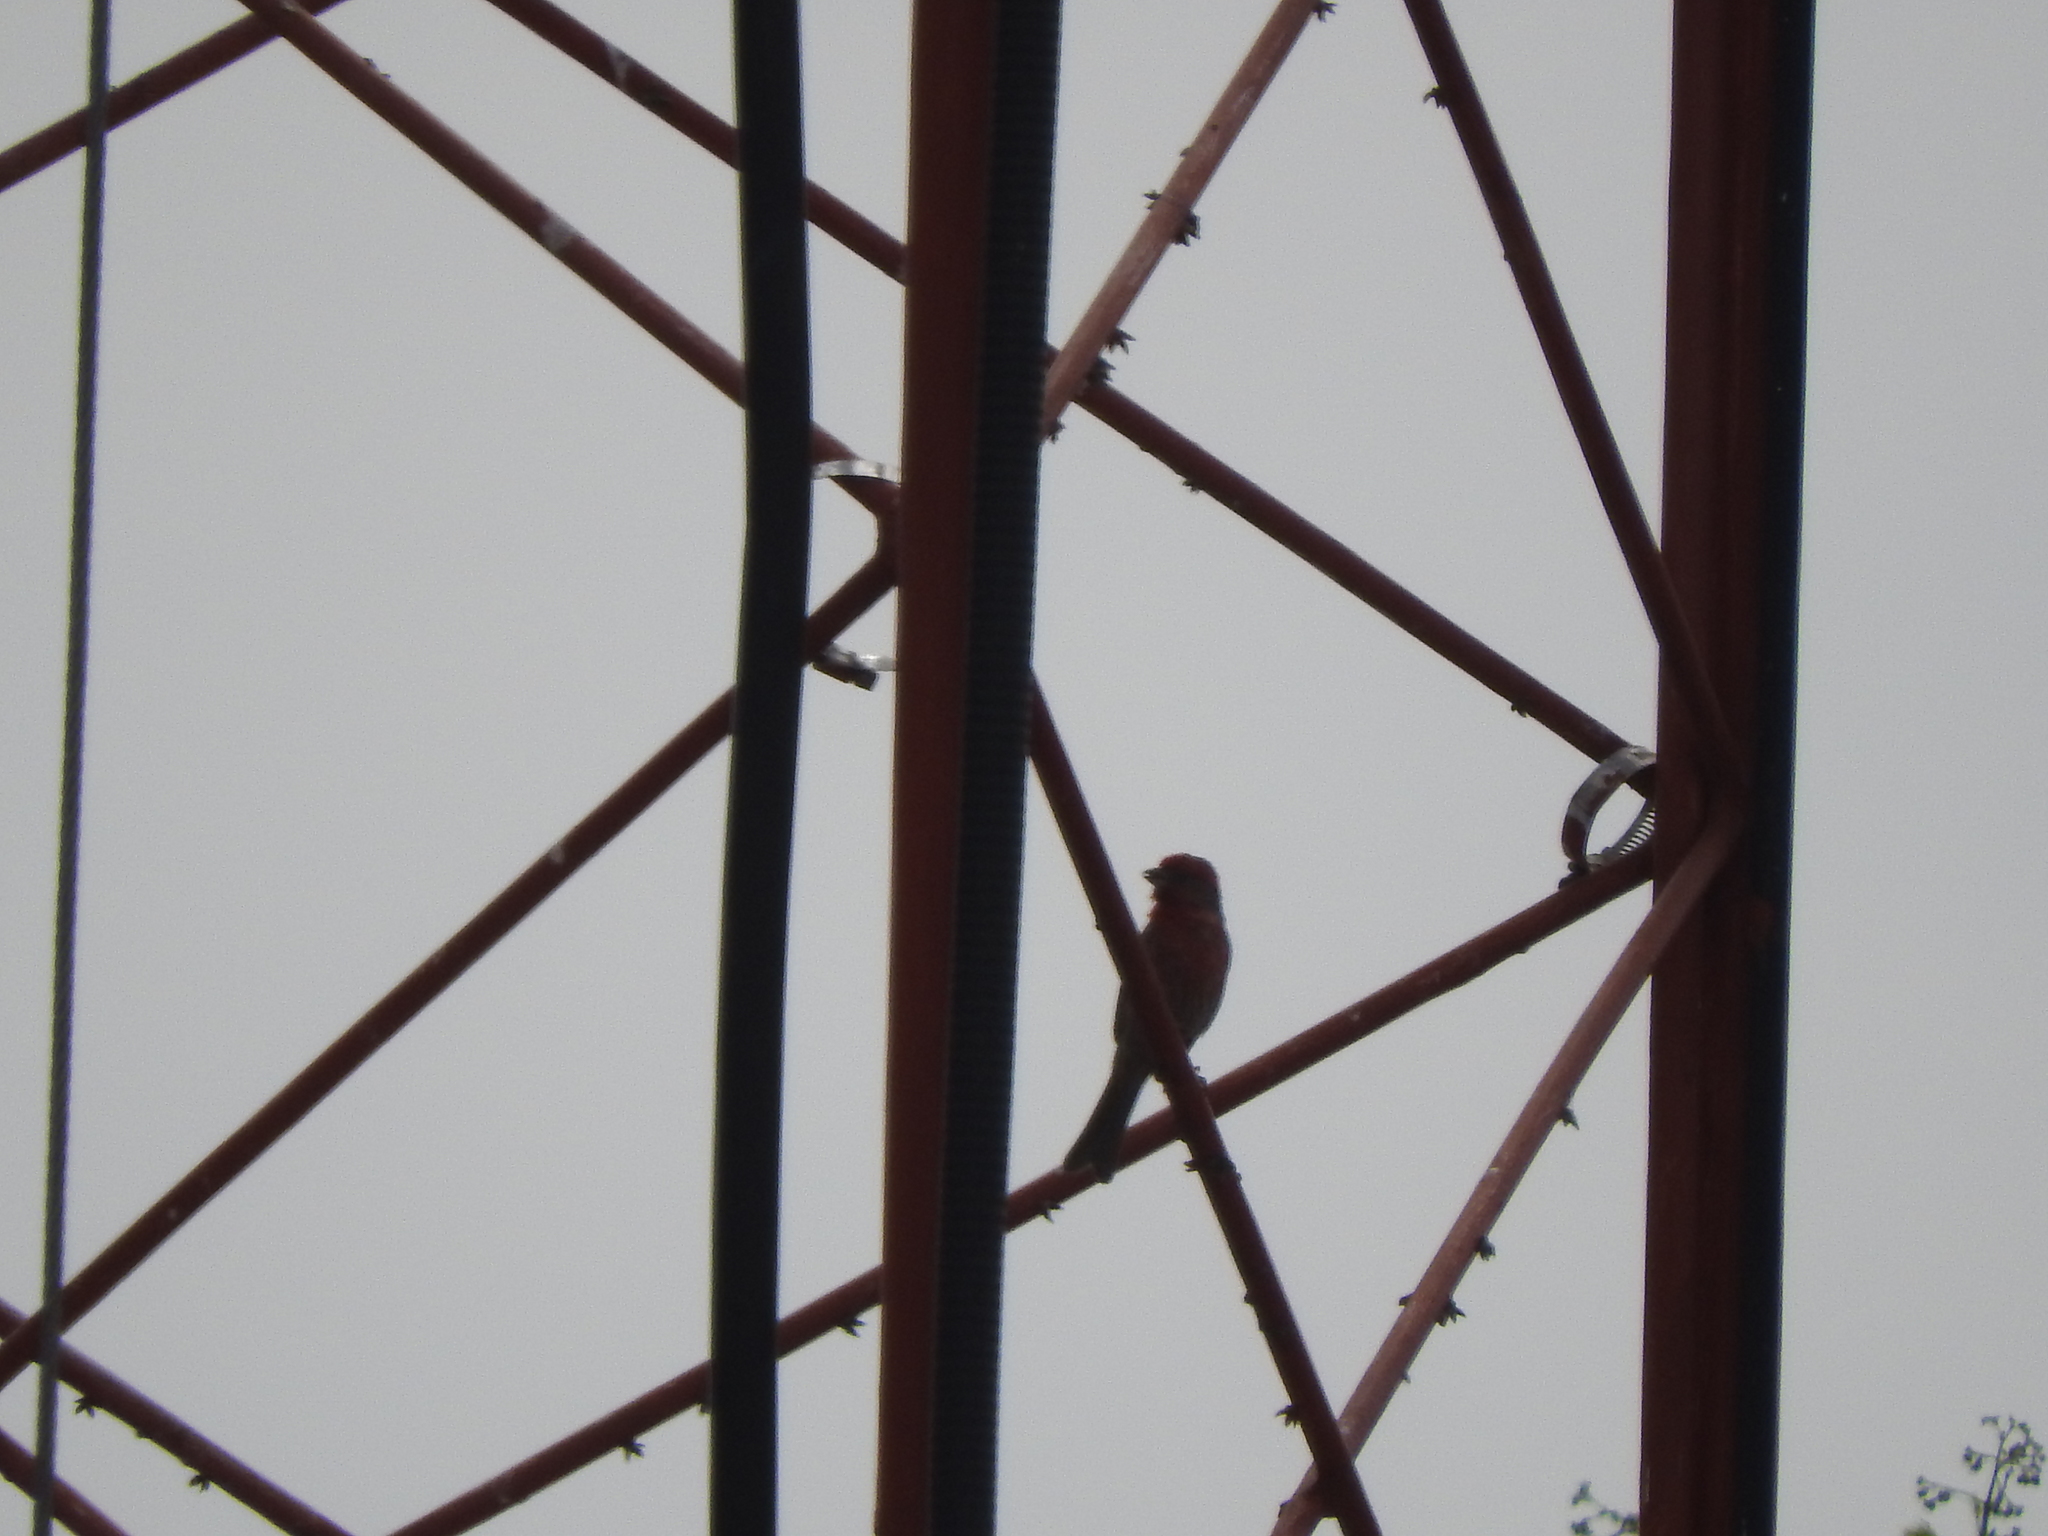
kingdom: Animalia
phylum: Chordata
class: Aves
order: Passeriformes
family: Fringillidae
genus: Haemorhous
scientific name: Haemorhous mexicanus
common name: House finch
